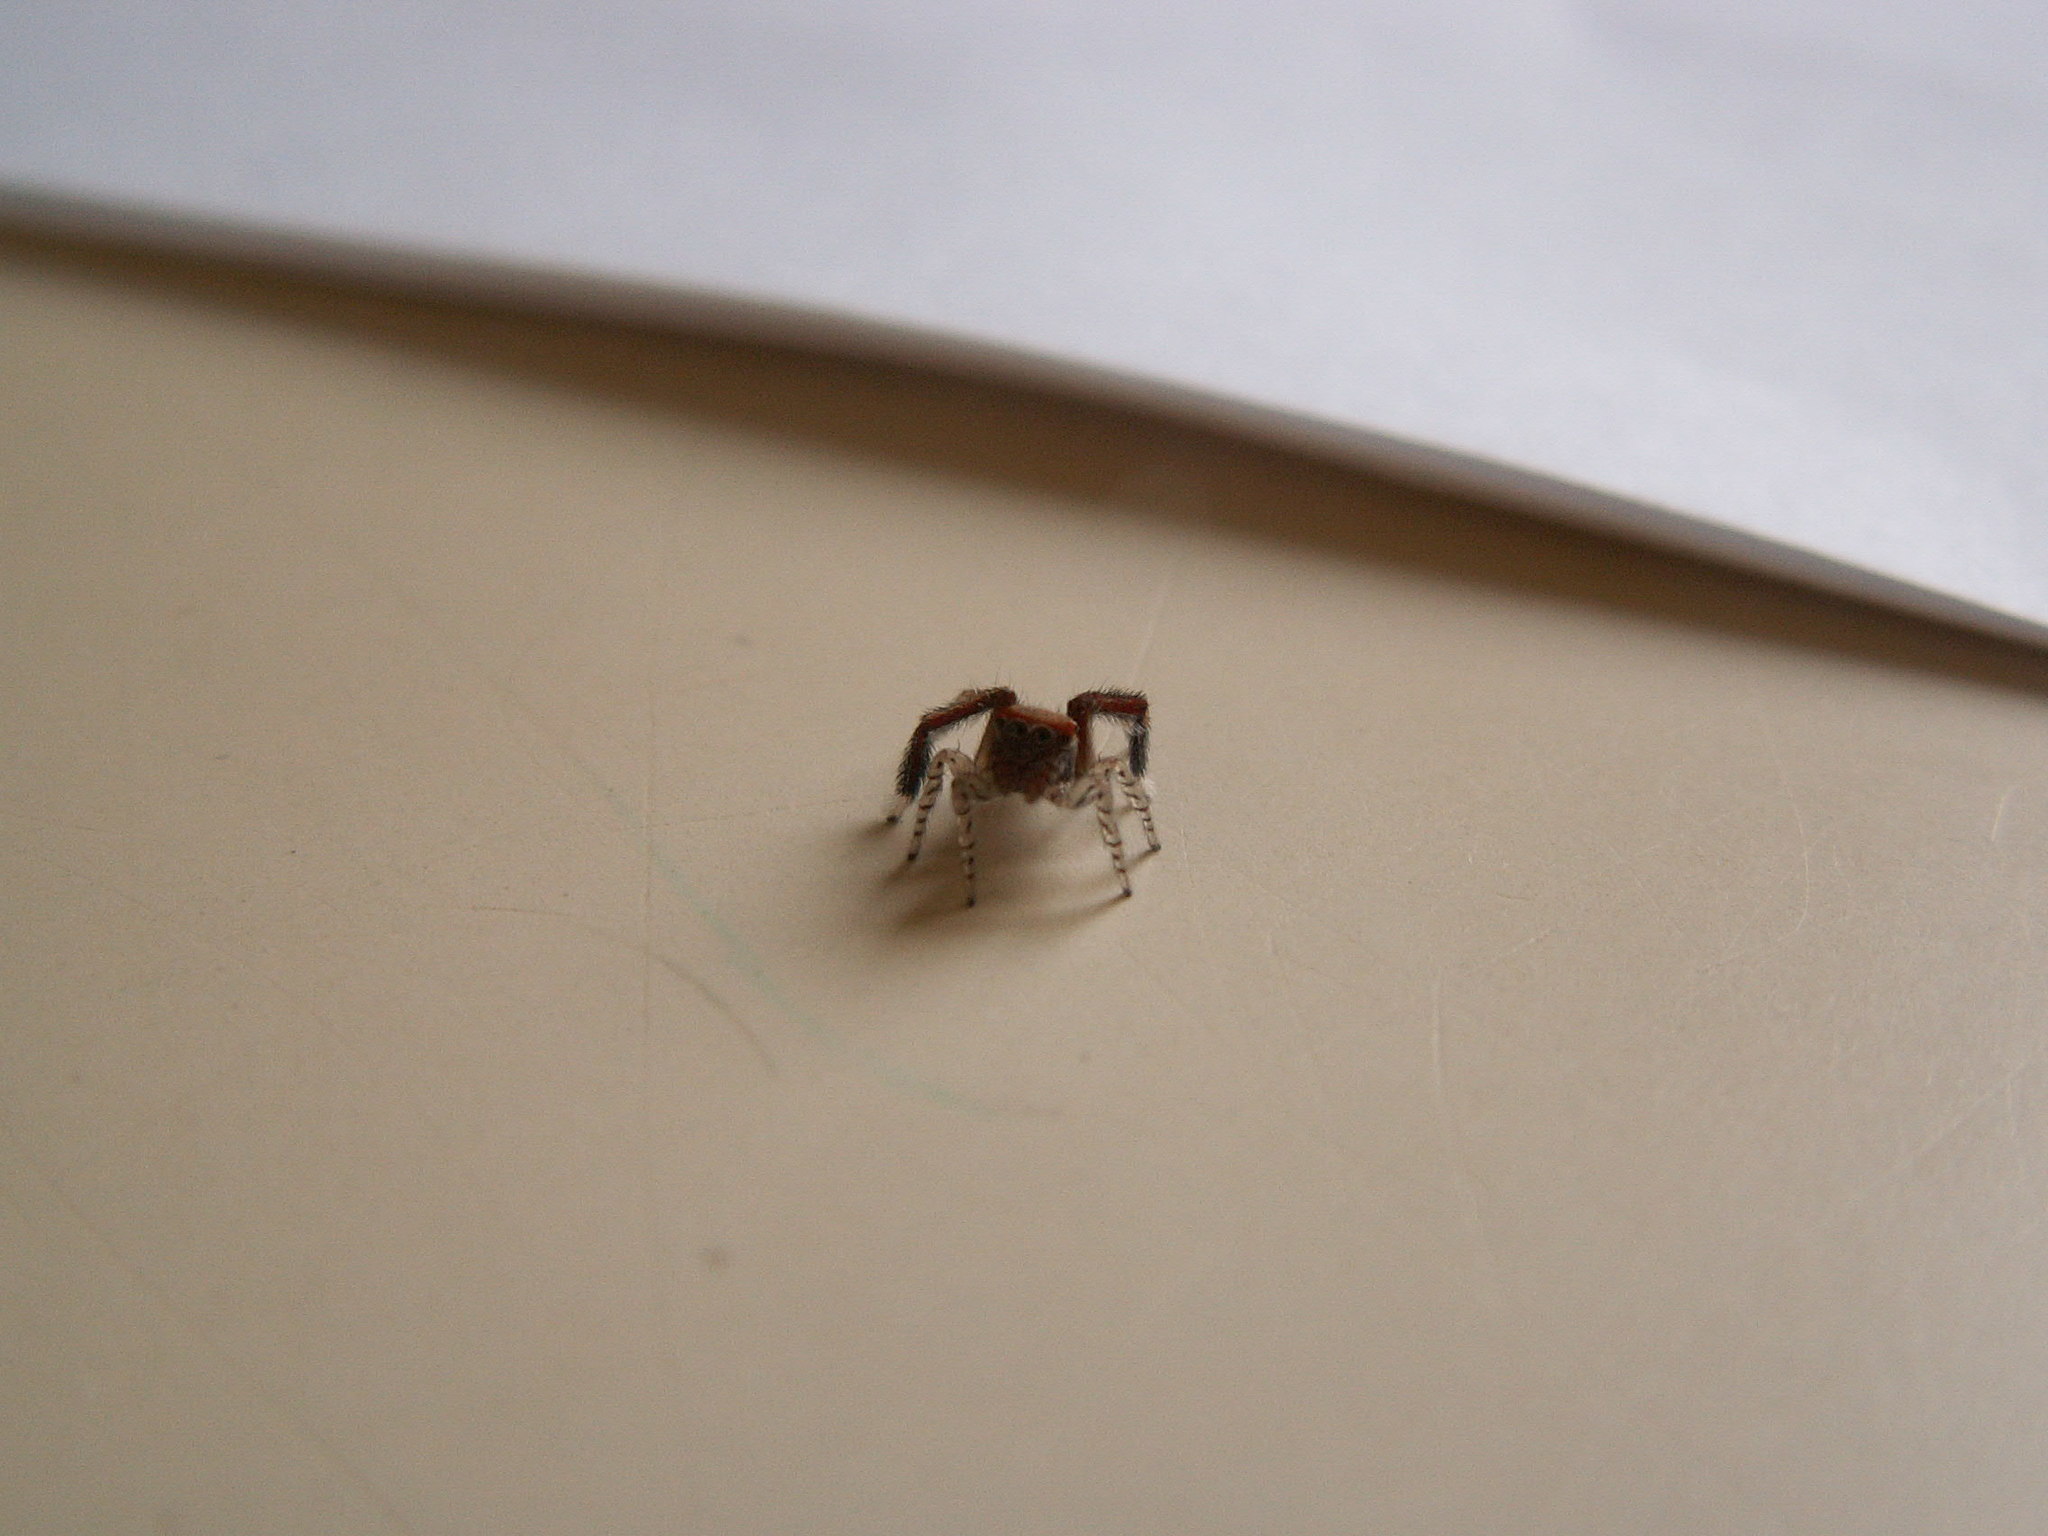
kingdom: Animalia
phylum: Arthropoda
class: Arachnida
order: Araneae
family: Salticidae
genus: Saitis
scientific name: Saitis barbipes
